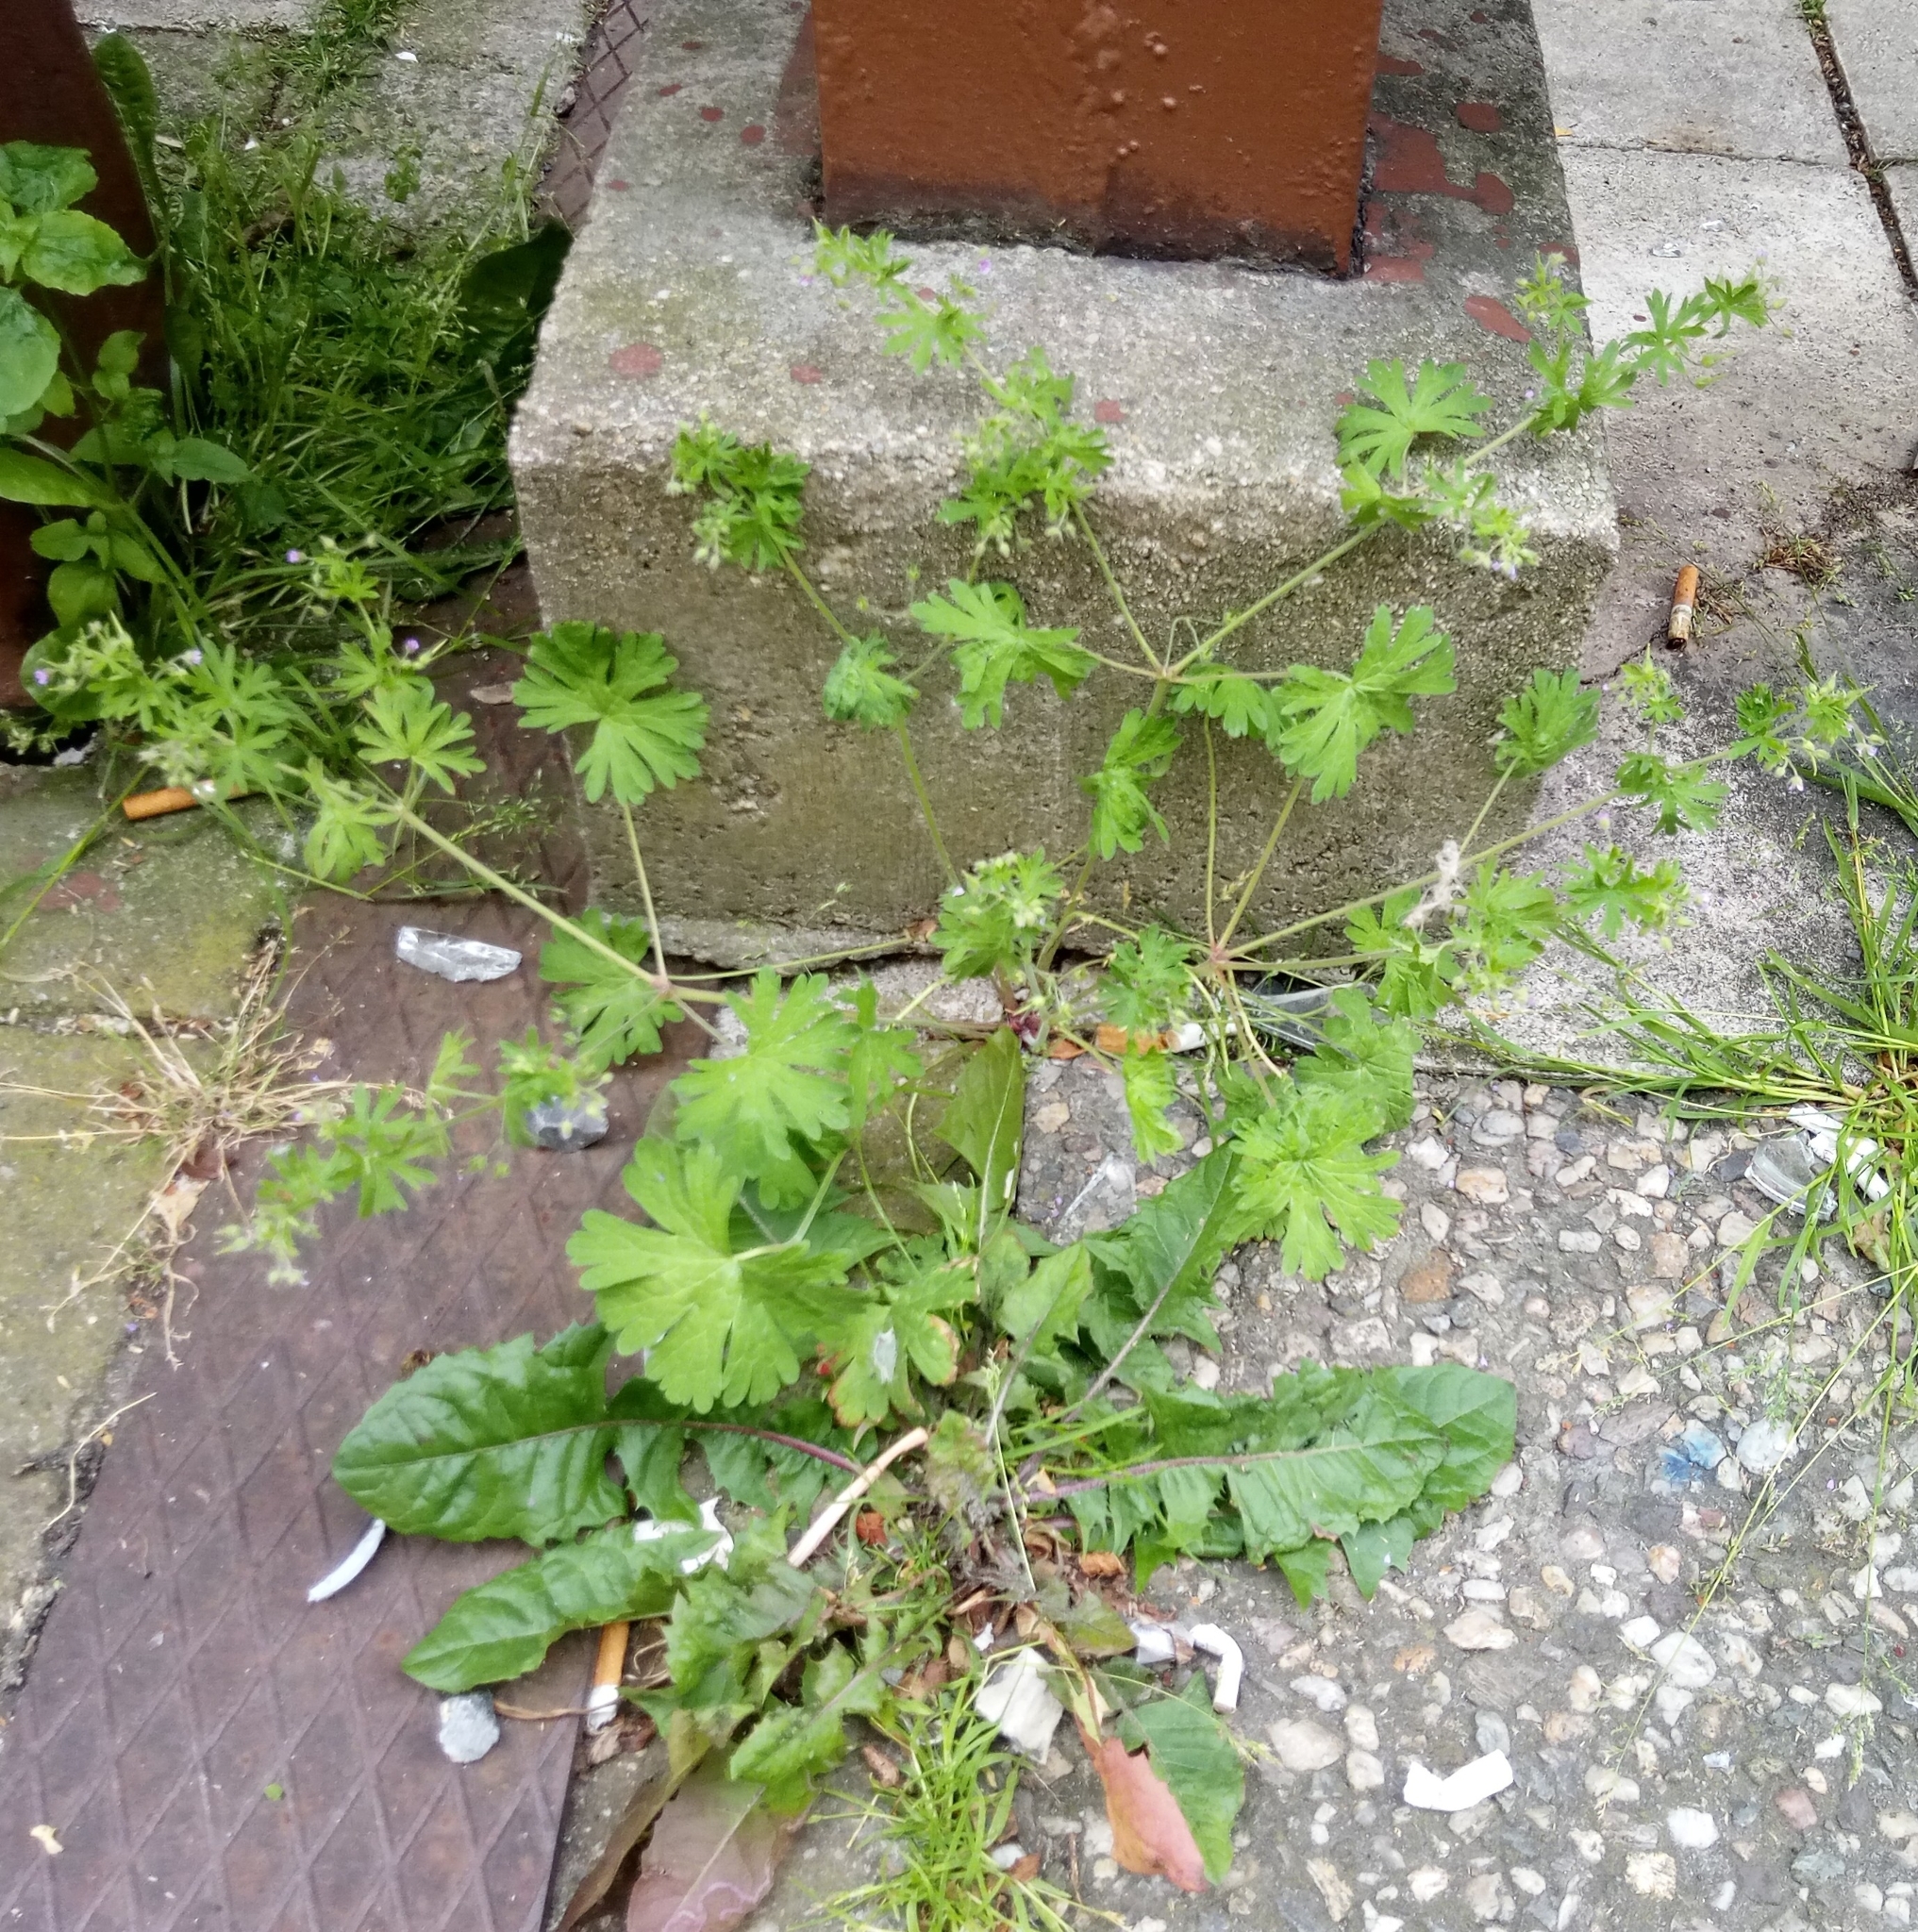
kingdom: Plantae
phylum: Tracheophyta
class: Magnoliopsida
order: Geraniales
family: Geraniaceae
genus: Geranium
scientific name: Geranium pusillum
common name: Small geranium
